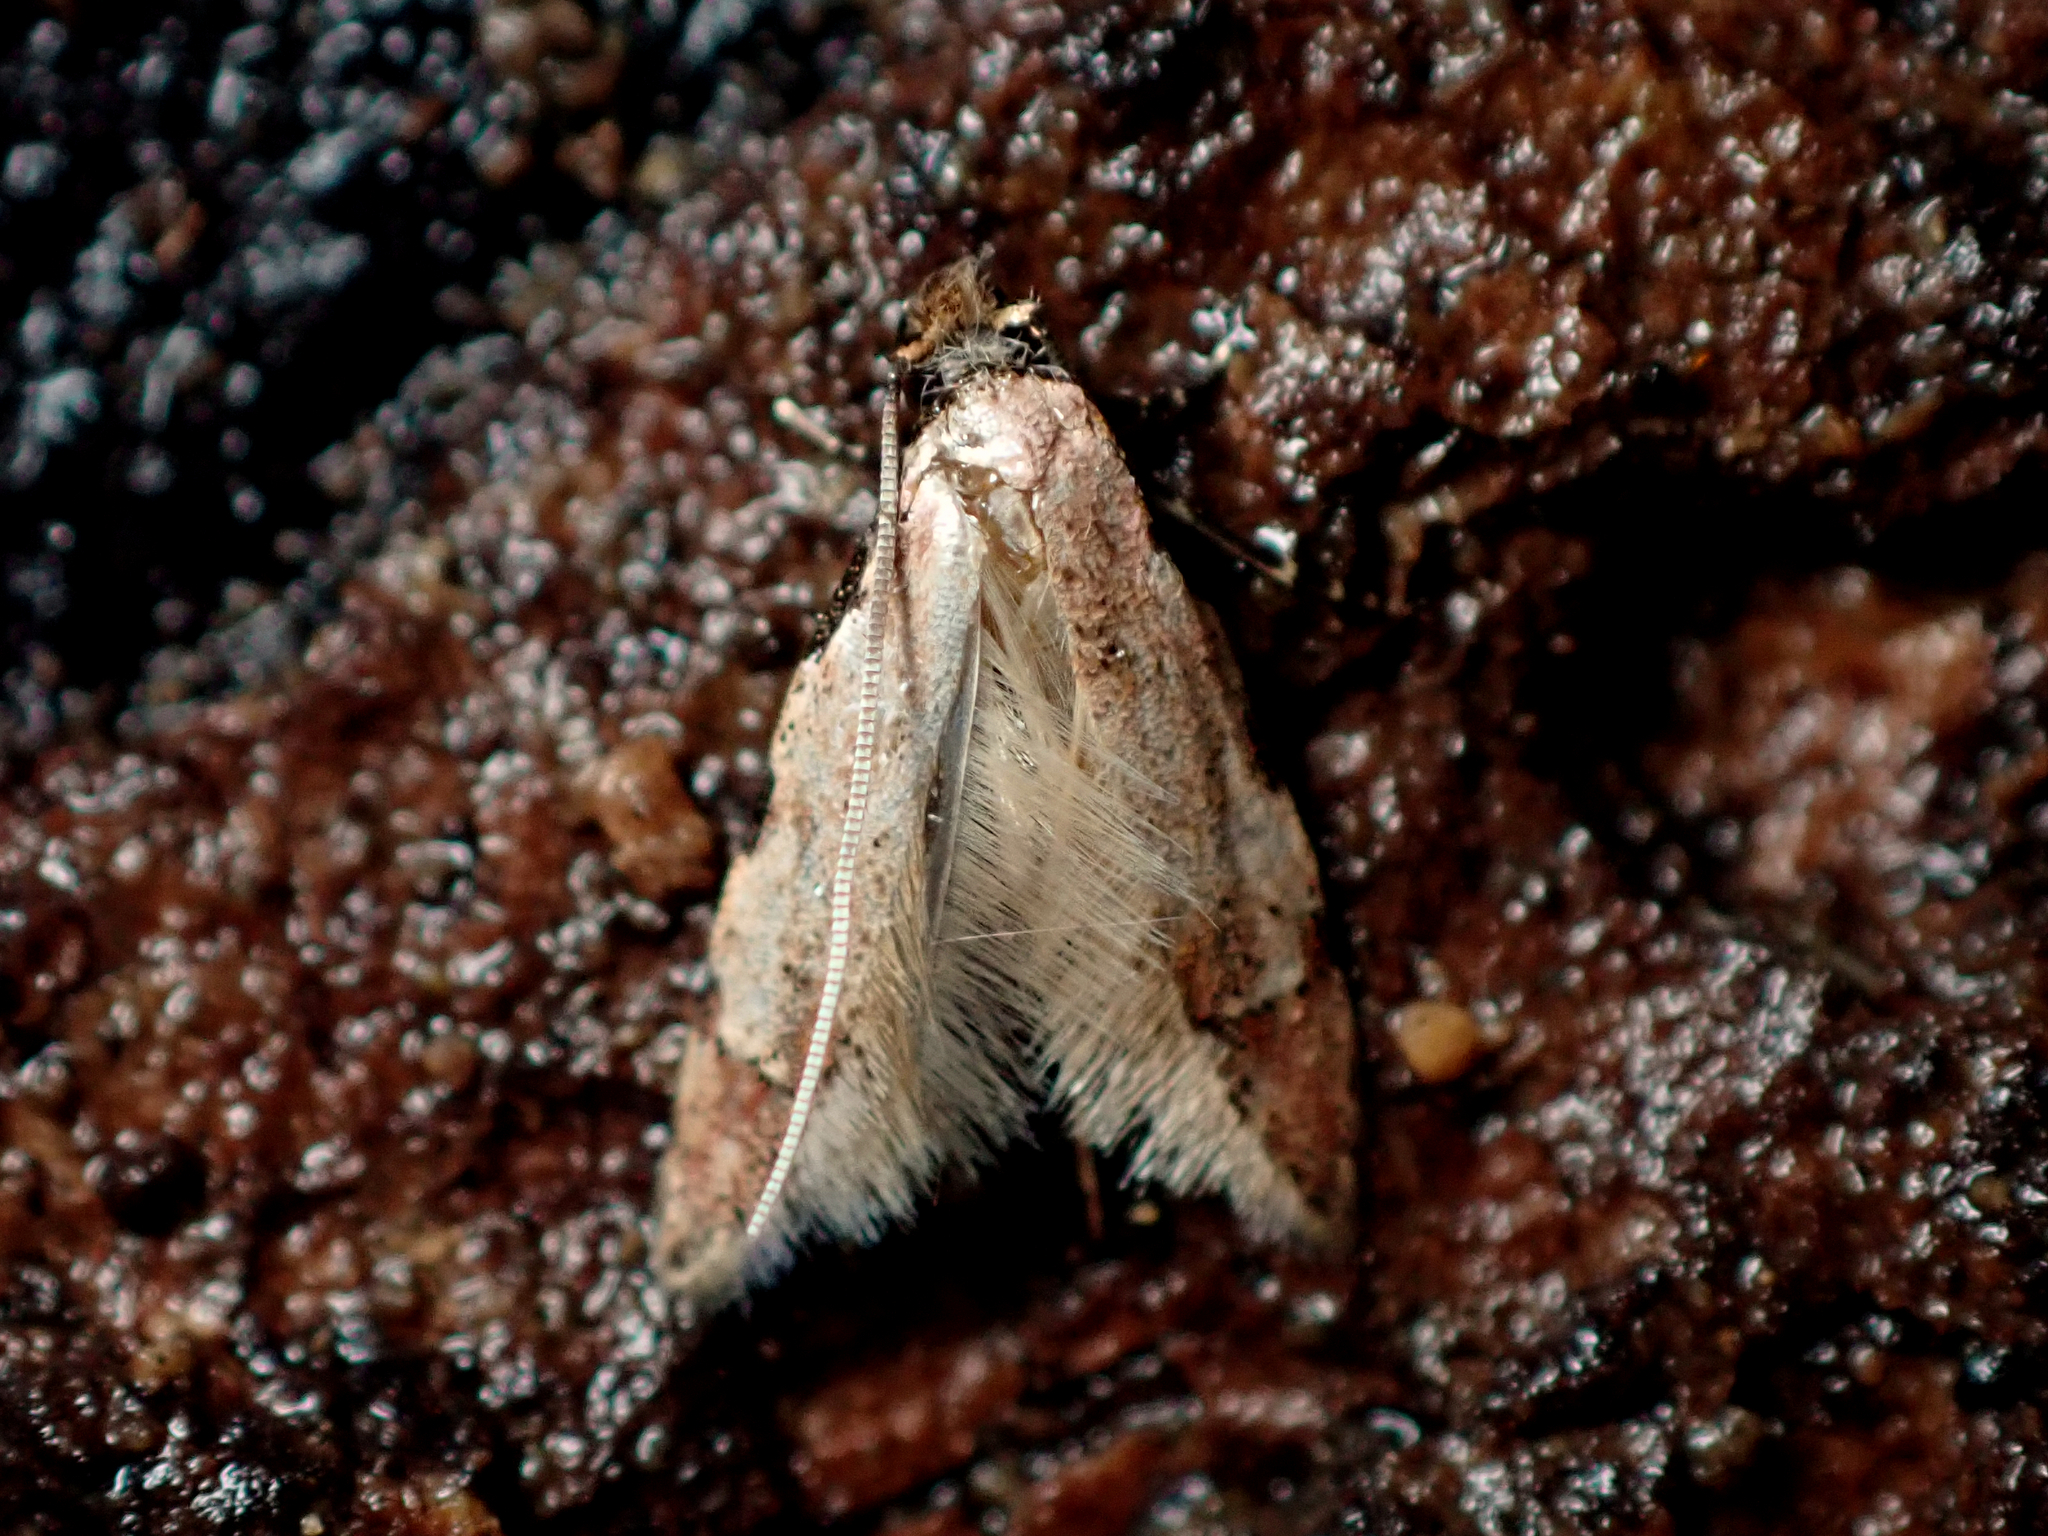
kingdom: Animalia
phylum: Arthropoda
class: Insecta
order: Lepidoptera
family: Tineidae
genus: Endophthora
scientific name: Endophthora rubiginella
